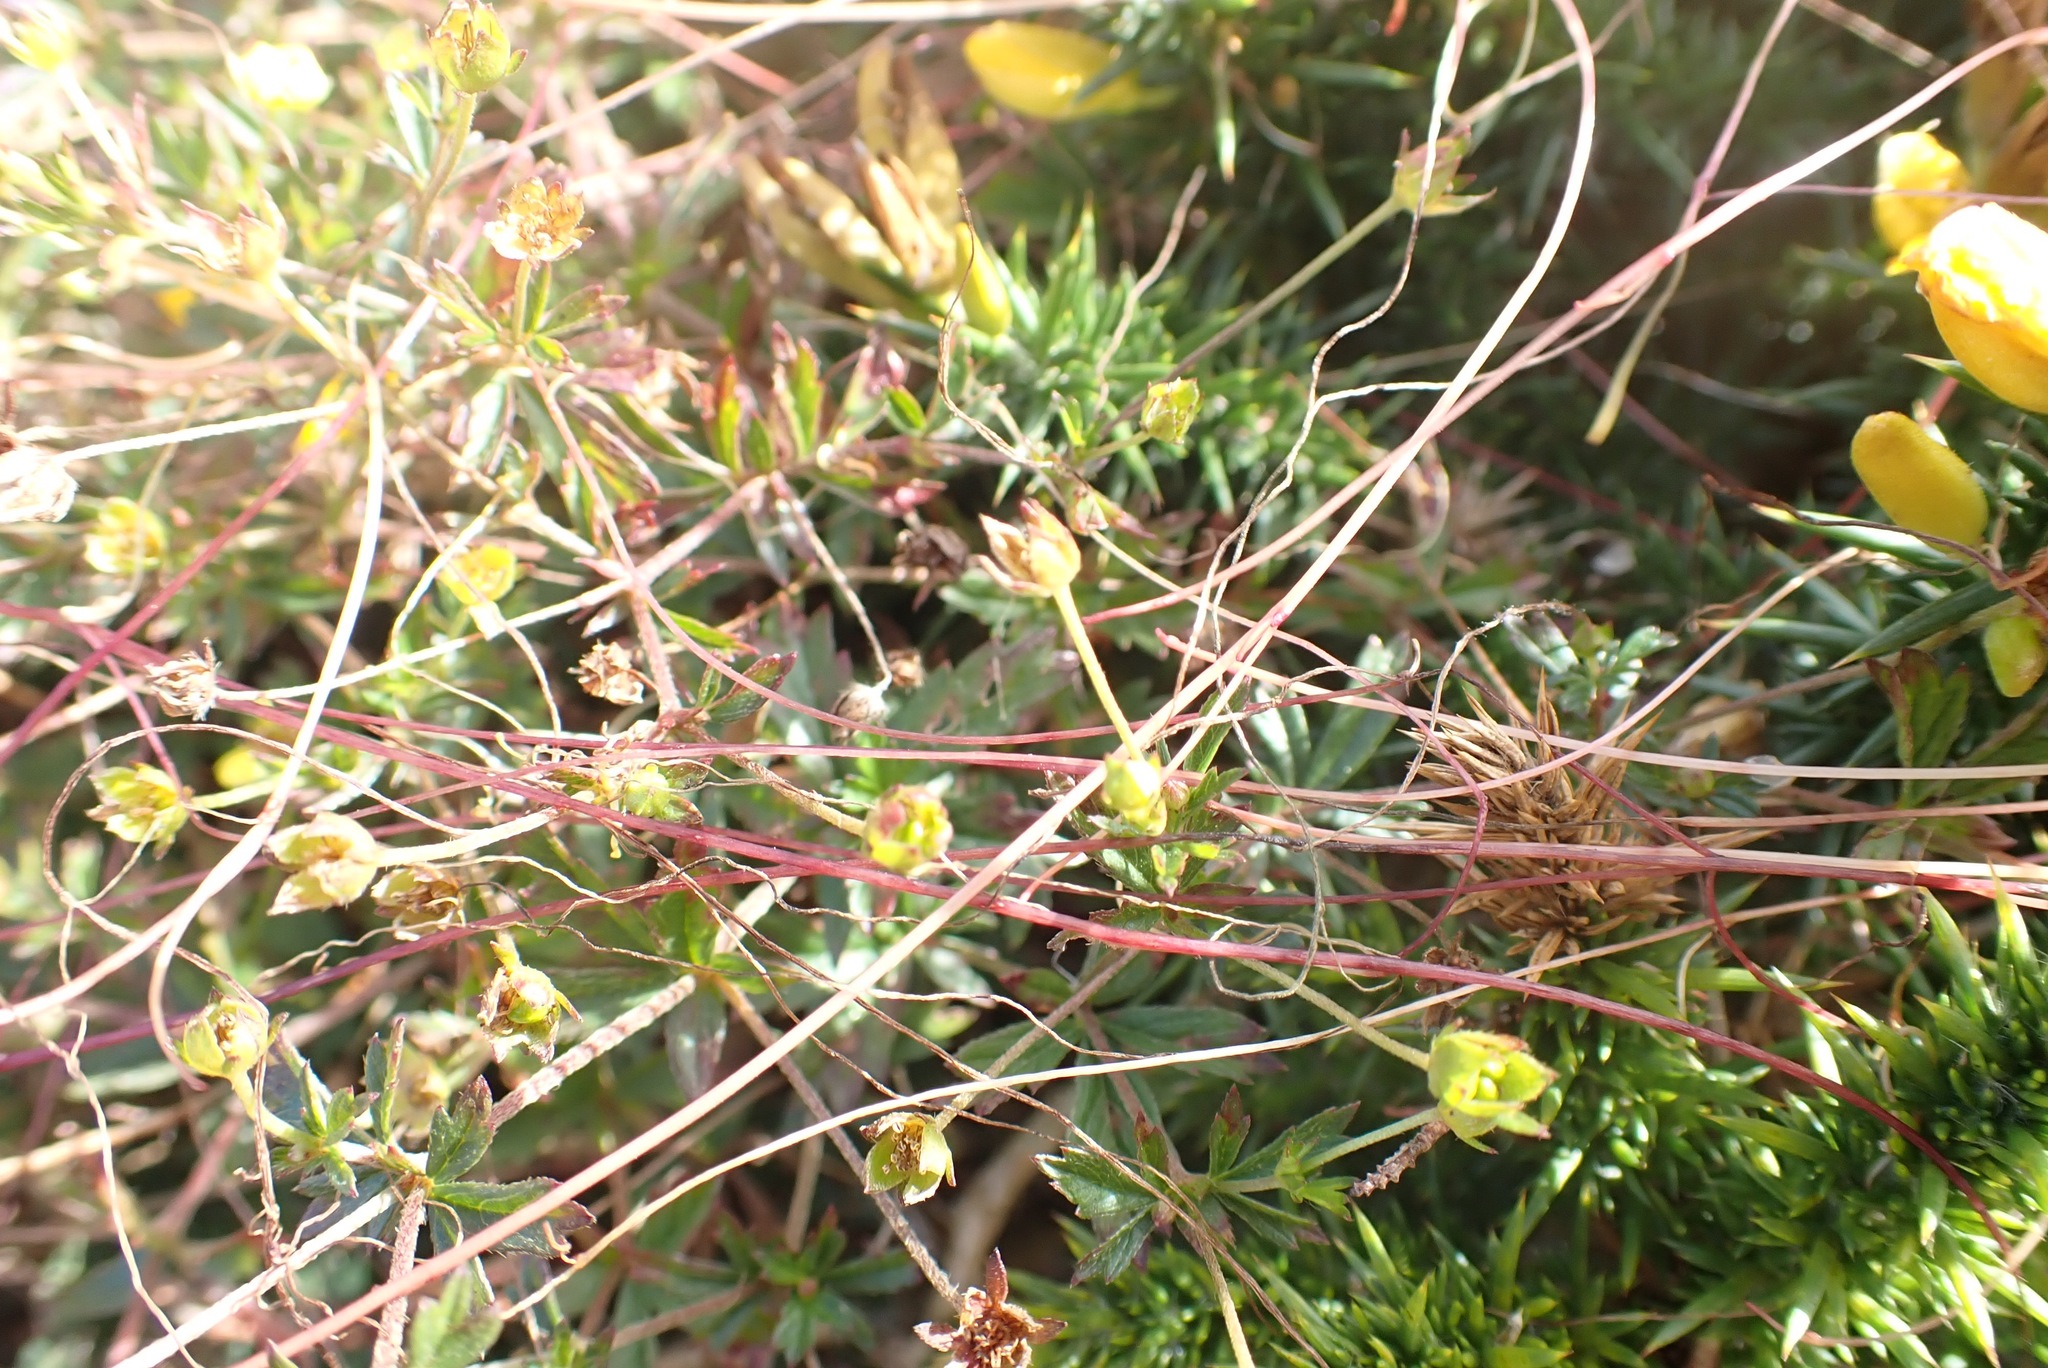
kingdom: Plantae
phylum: Tracheophyta
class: Magnoliopsida
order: Solanales
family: Convolvulaceae
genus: Cuscuta
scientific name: Cuscuta epithymum
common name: Clover dodder
